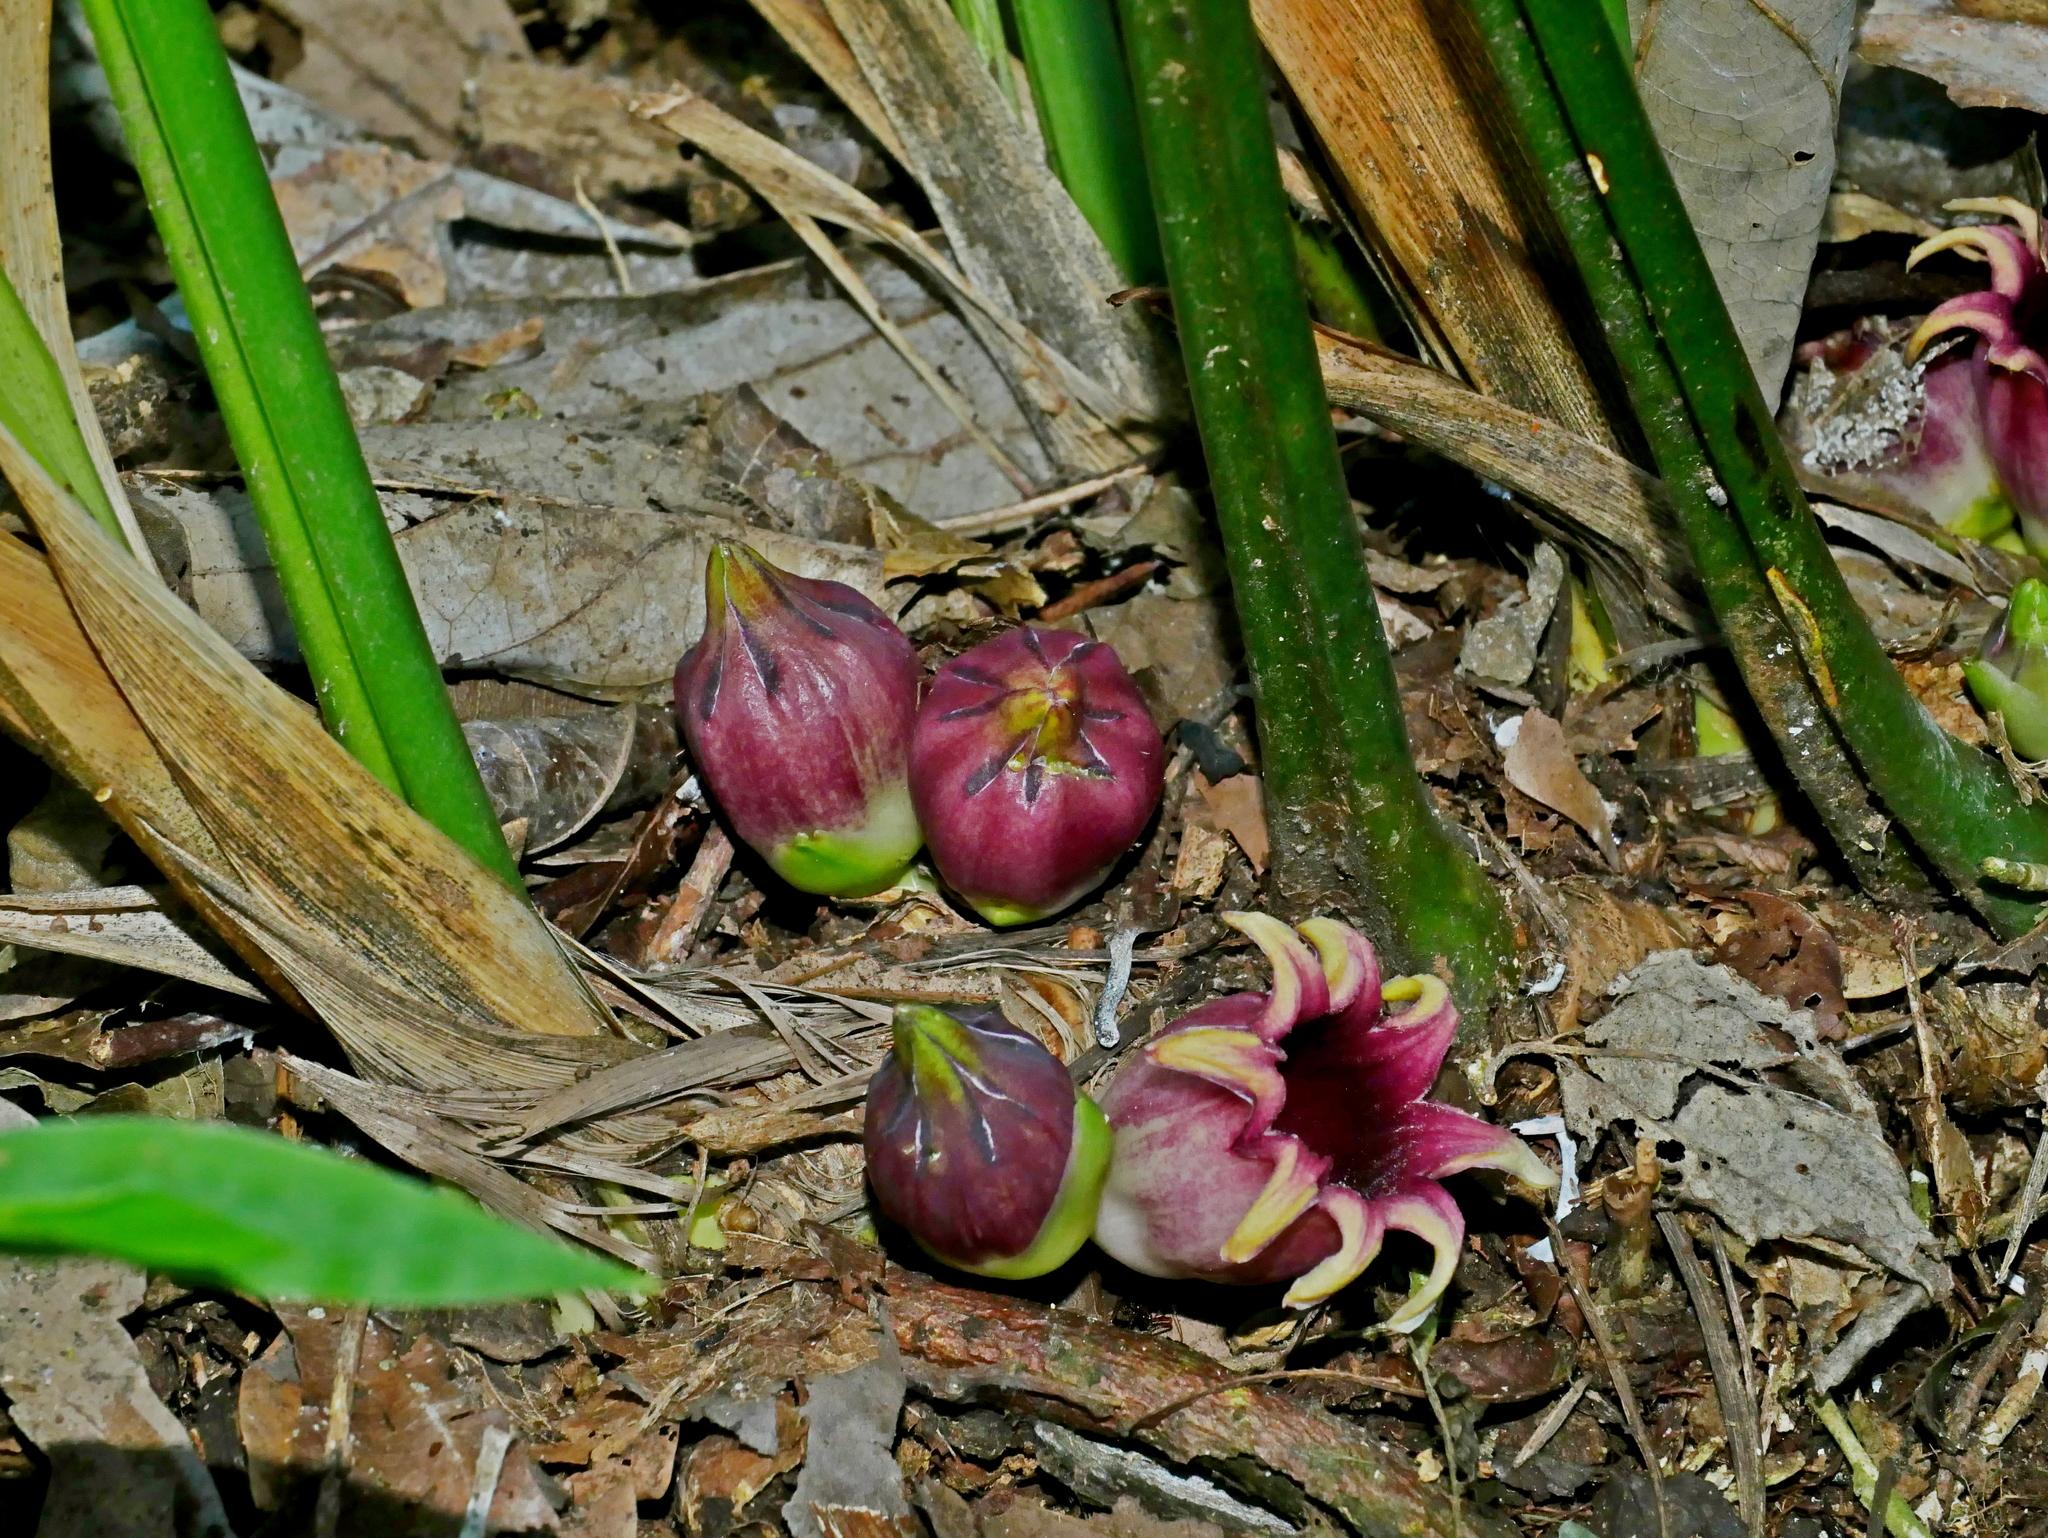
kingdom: Plantae
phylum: Tracheophyta
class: Liliopsida
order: Asparagales
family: Asparagaceae
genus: Aspidistra
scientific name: Aspidistra attenuata
